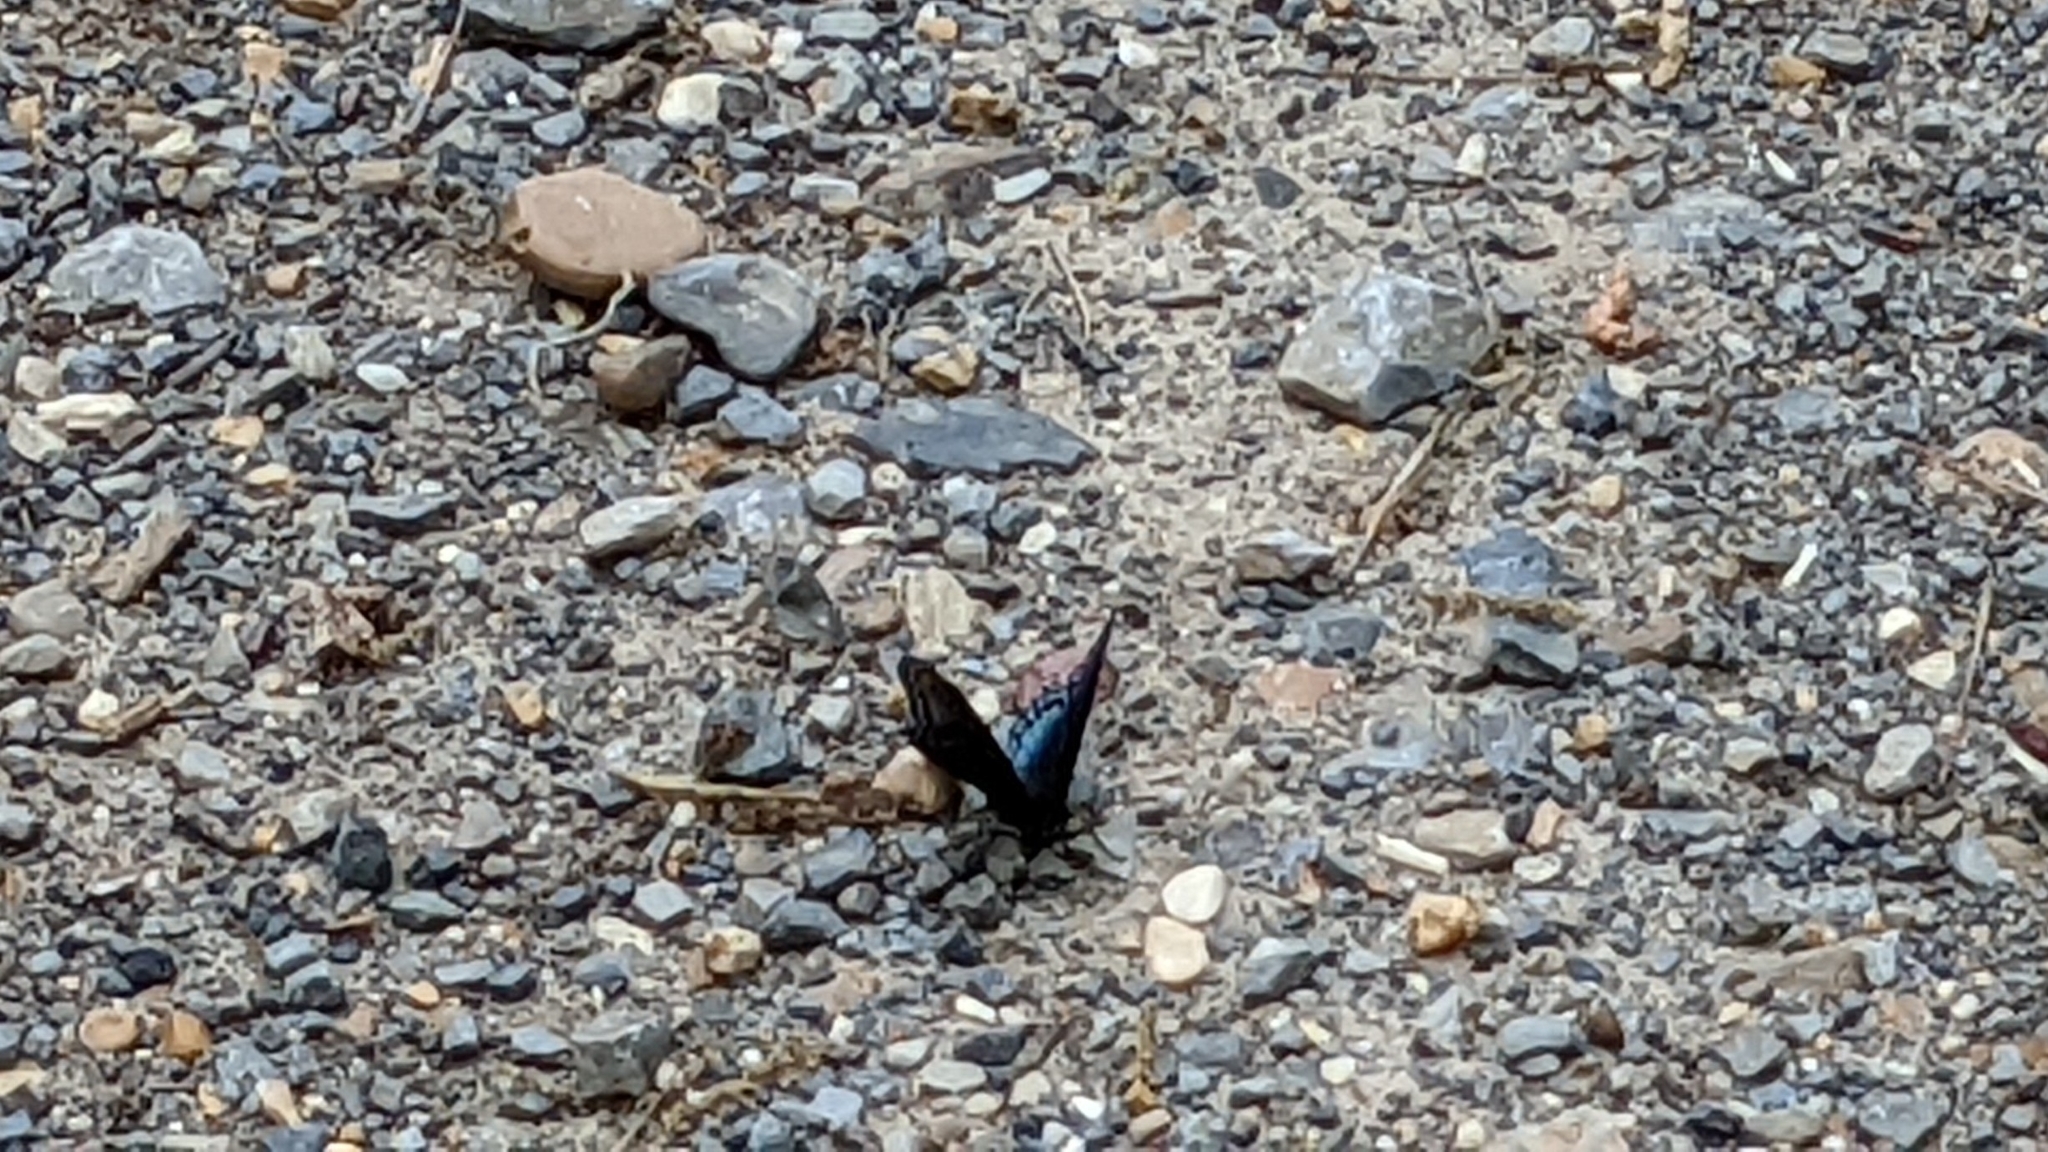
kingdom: Animalia
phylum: Arthropoda
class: Insecta
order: Lepidoptera
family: Nymphalidae
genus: Limenitis
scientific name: Limenitis astyanax
